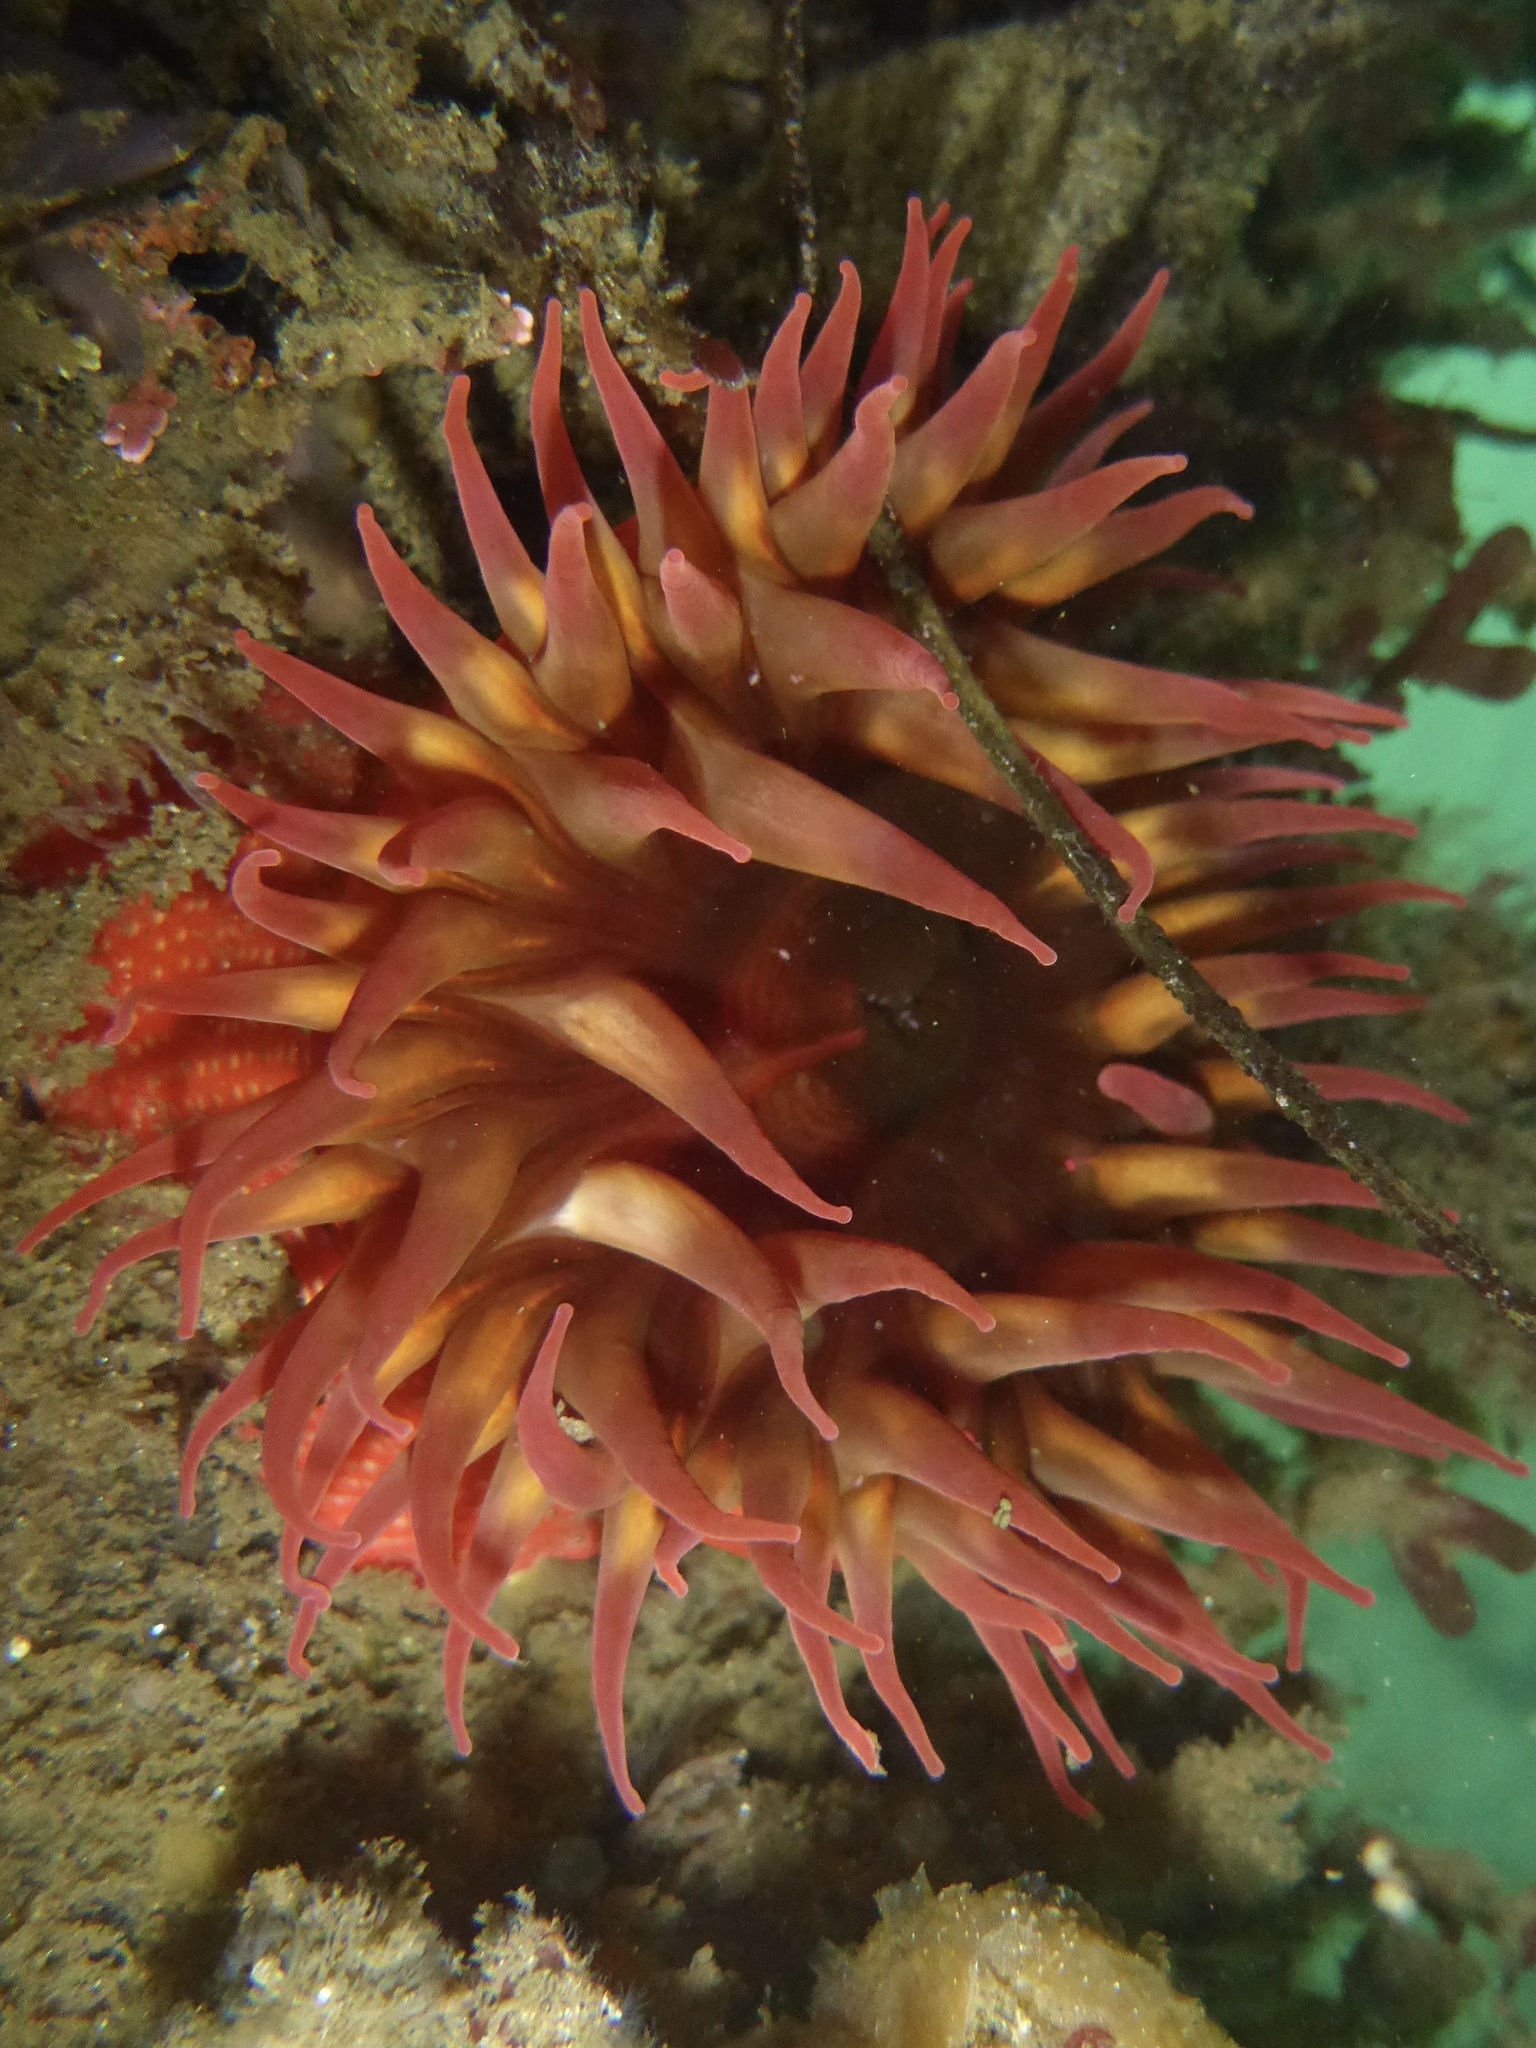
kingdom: Animalia
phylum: Cnidaria
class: Anthozoa
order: Actiniaria
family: Actiniidae
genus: Cribrinopsis
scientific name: Cribrinopsis albopunctata
